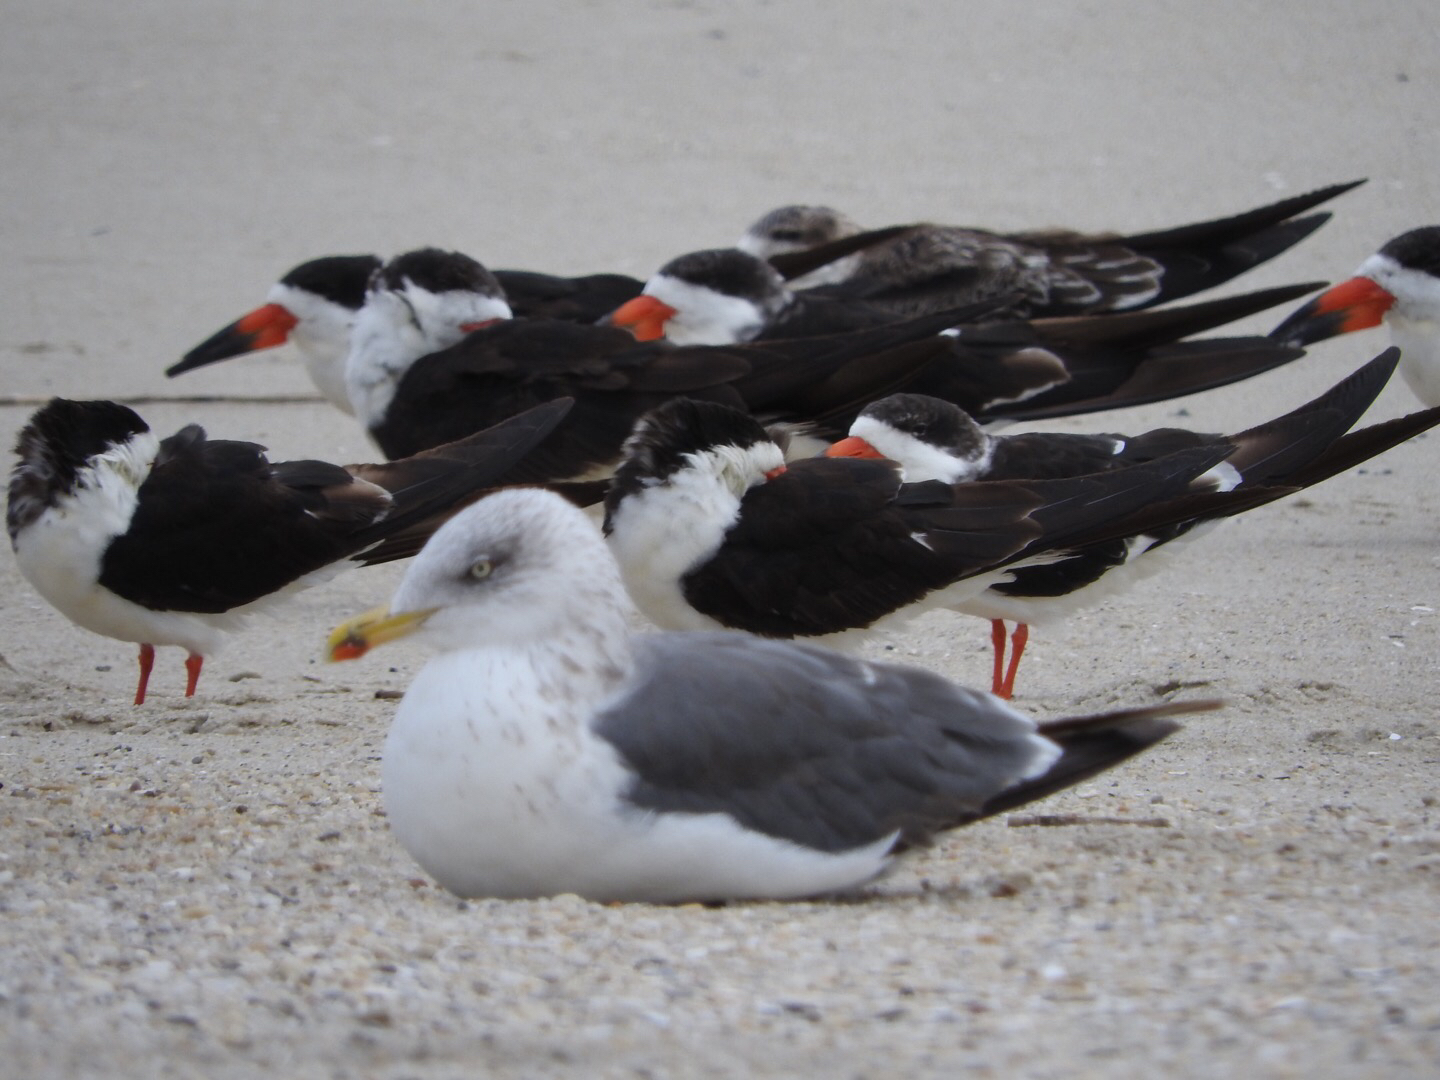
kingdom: Animalia
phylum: Chordata
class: Aves
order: Charadriiformes
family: Laridae
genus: Larus
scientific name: Larus fuscus
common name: Lesser black-backed gull
